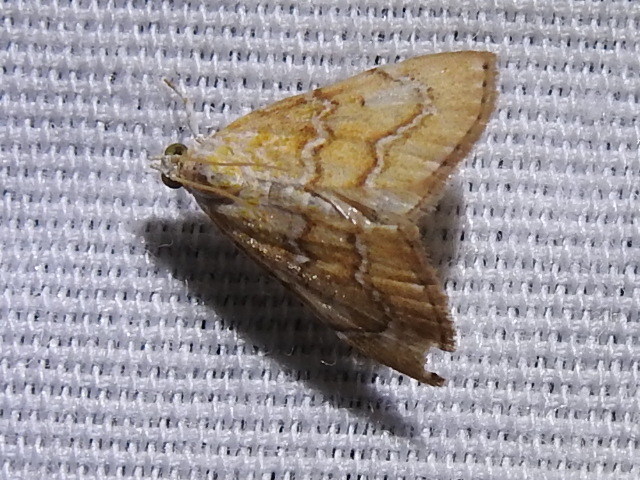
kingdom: Animalia
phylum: Arthropoda
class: Insecta
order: Lepidoptera
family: Crambidae
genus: Glaphyria
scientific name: Glaphyria sesquistrialis
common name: White-roped glaphyria
